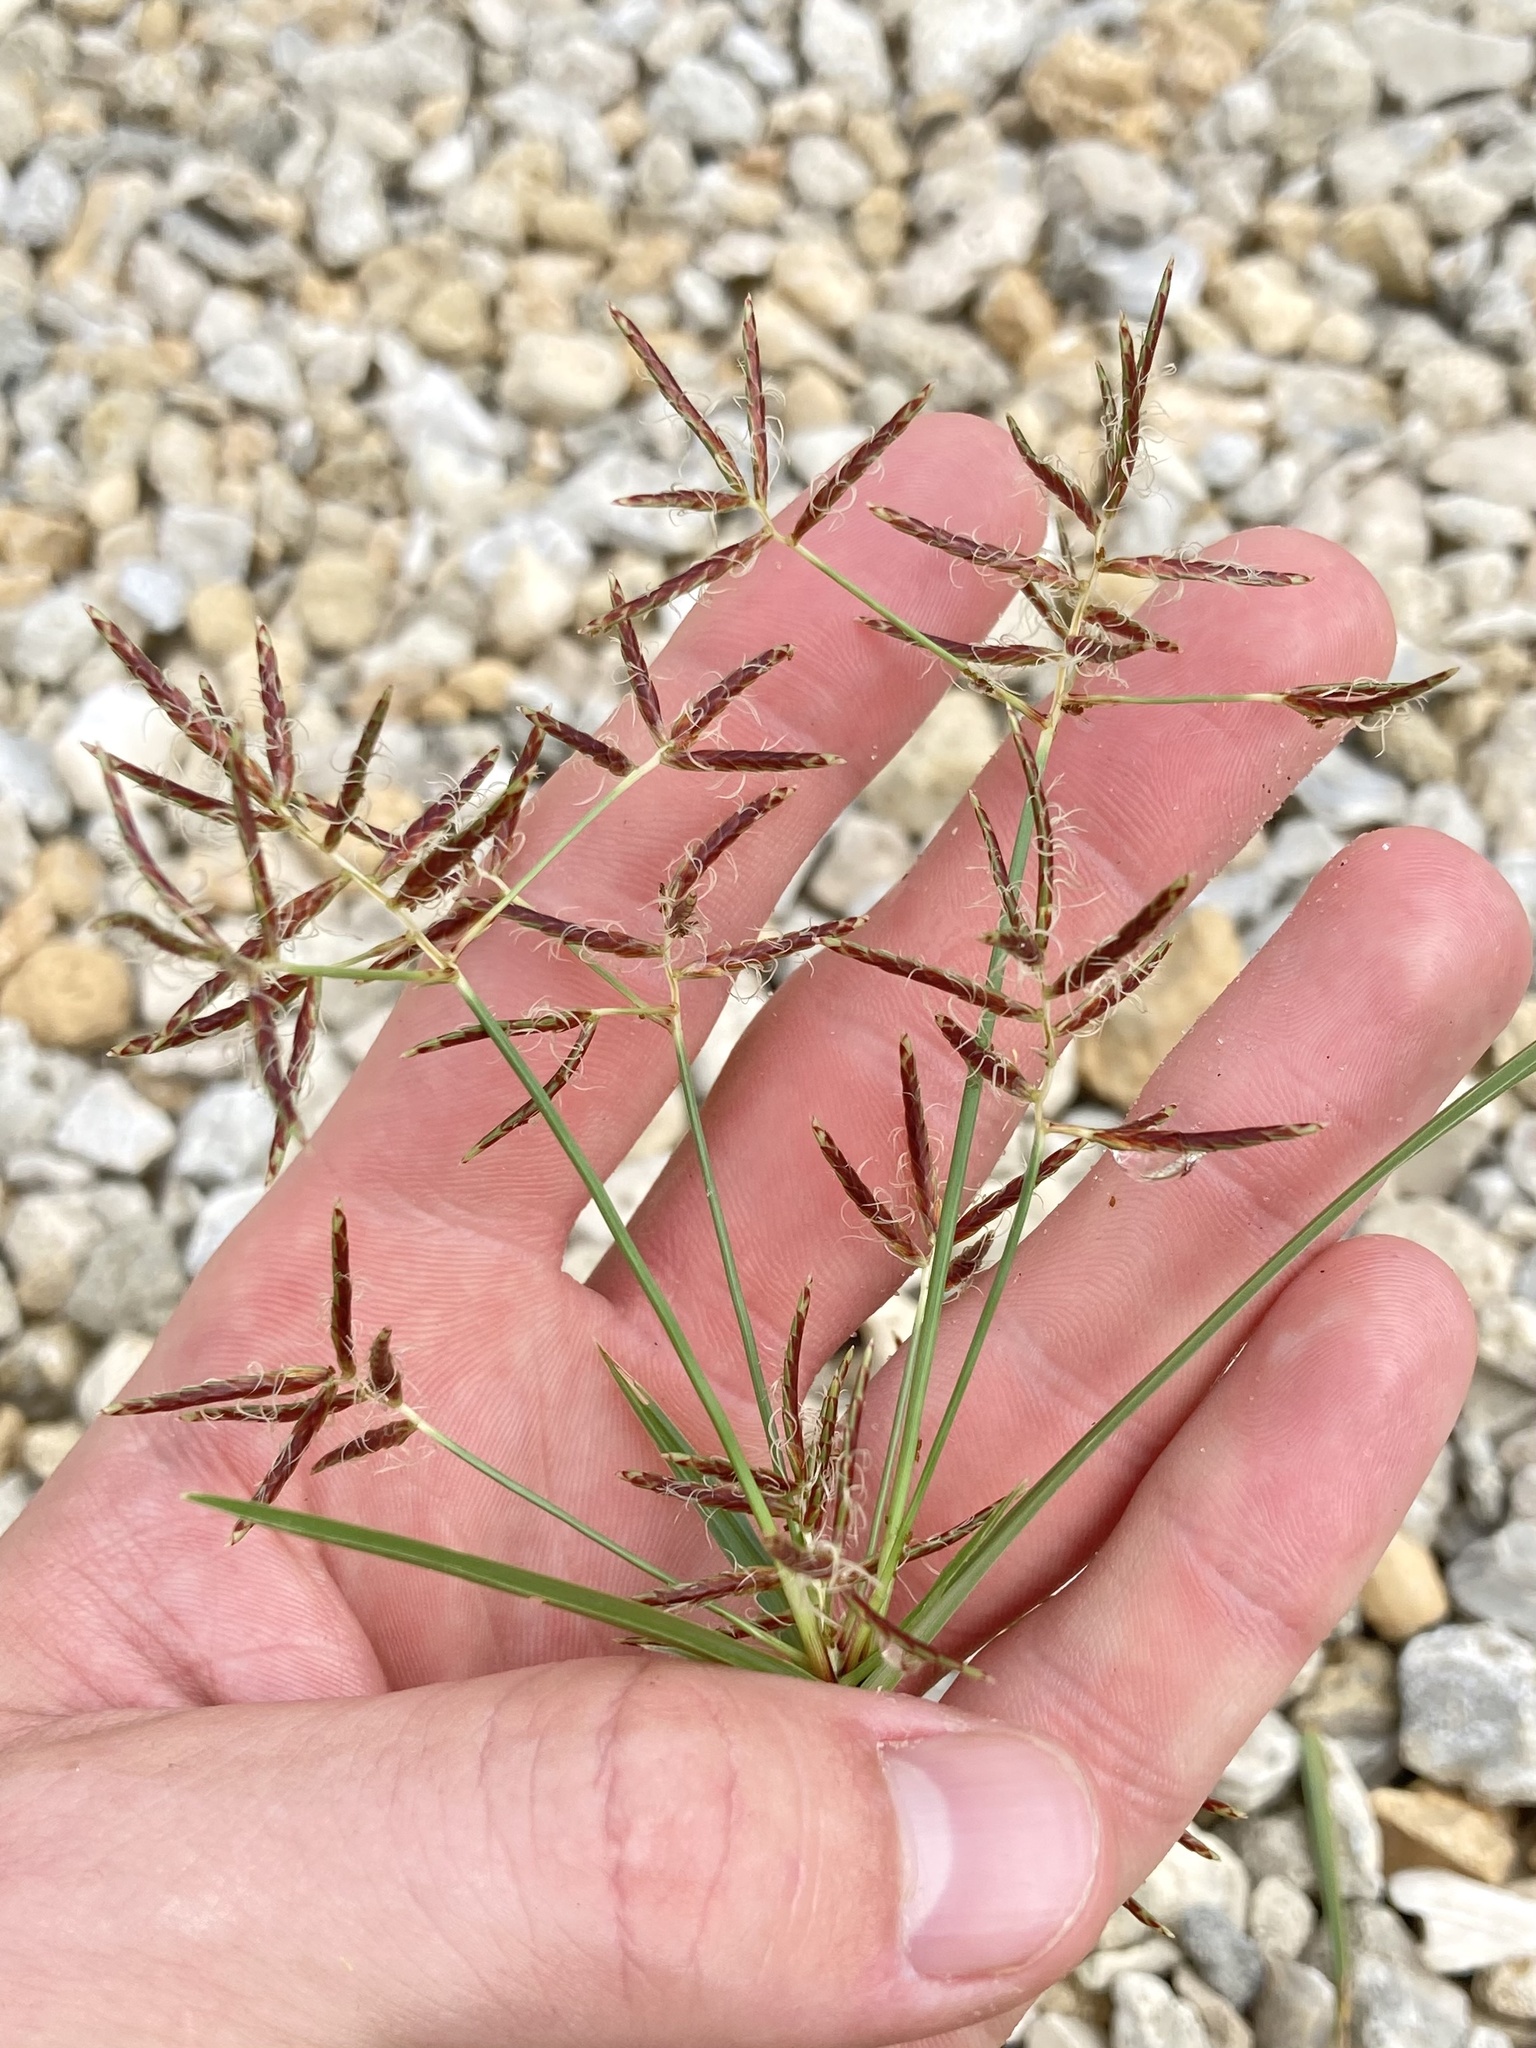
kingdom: Plantae
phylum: Tracheophyta
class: Liliopsida
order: Poales
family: Cyperaceae
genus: Cyperus
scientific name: Cyperus rotundus
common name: Nutgrass
